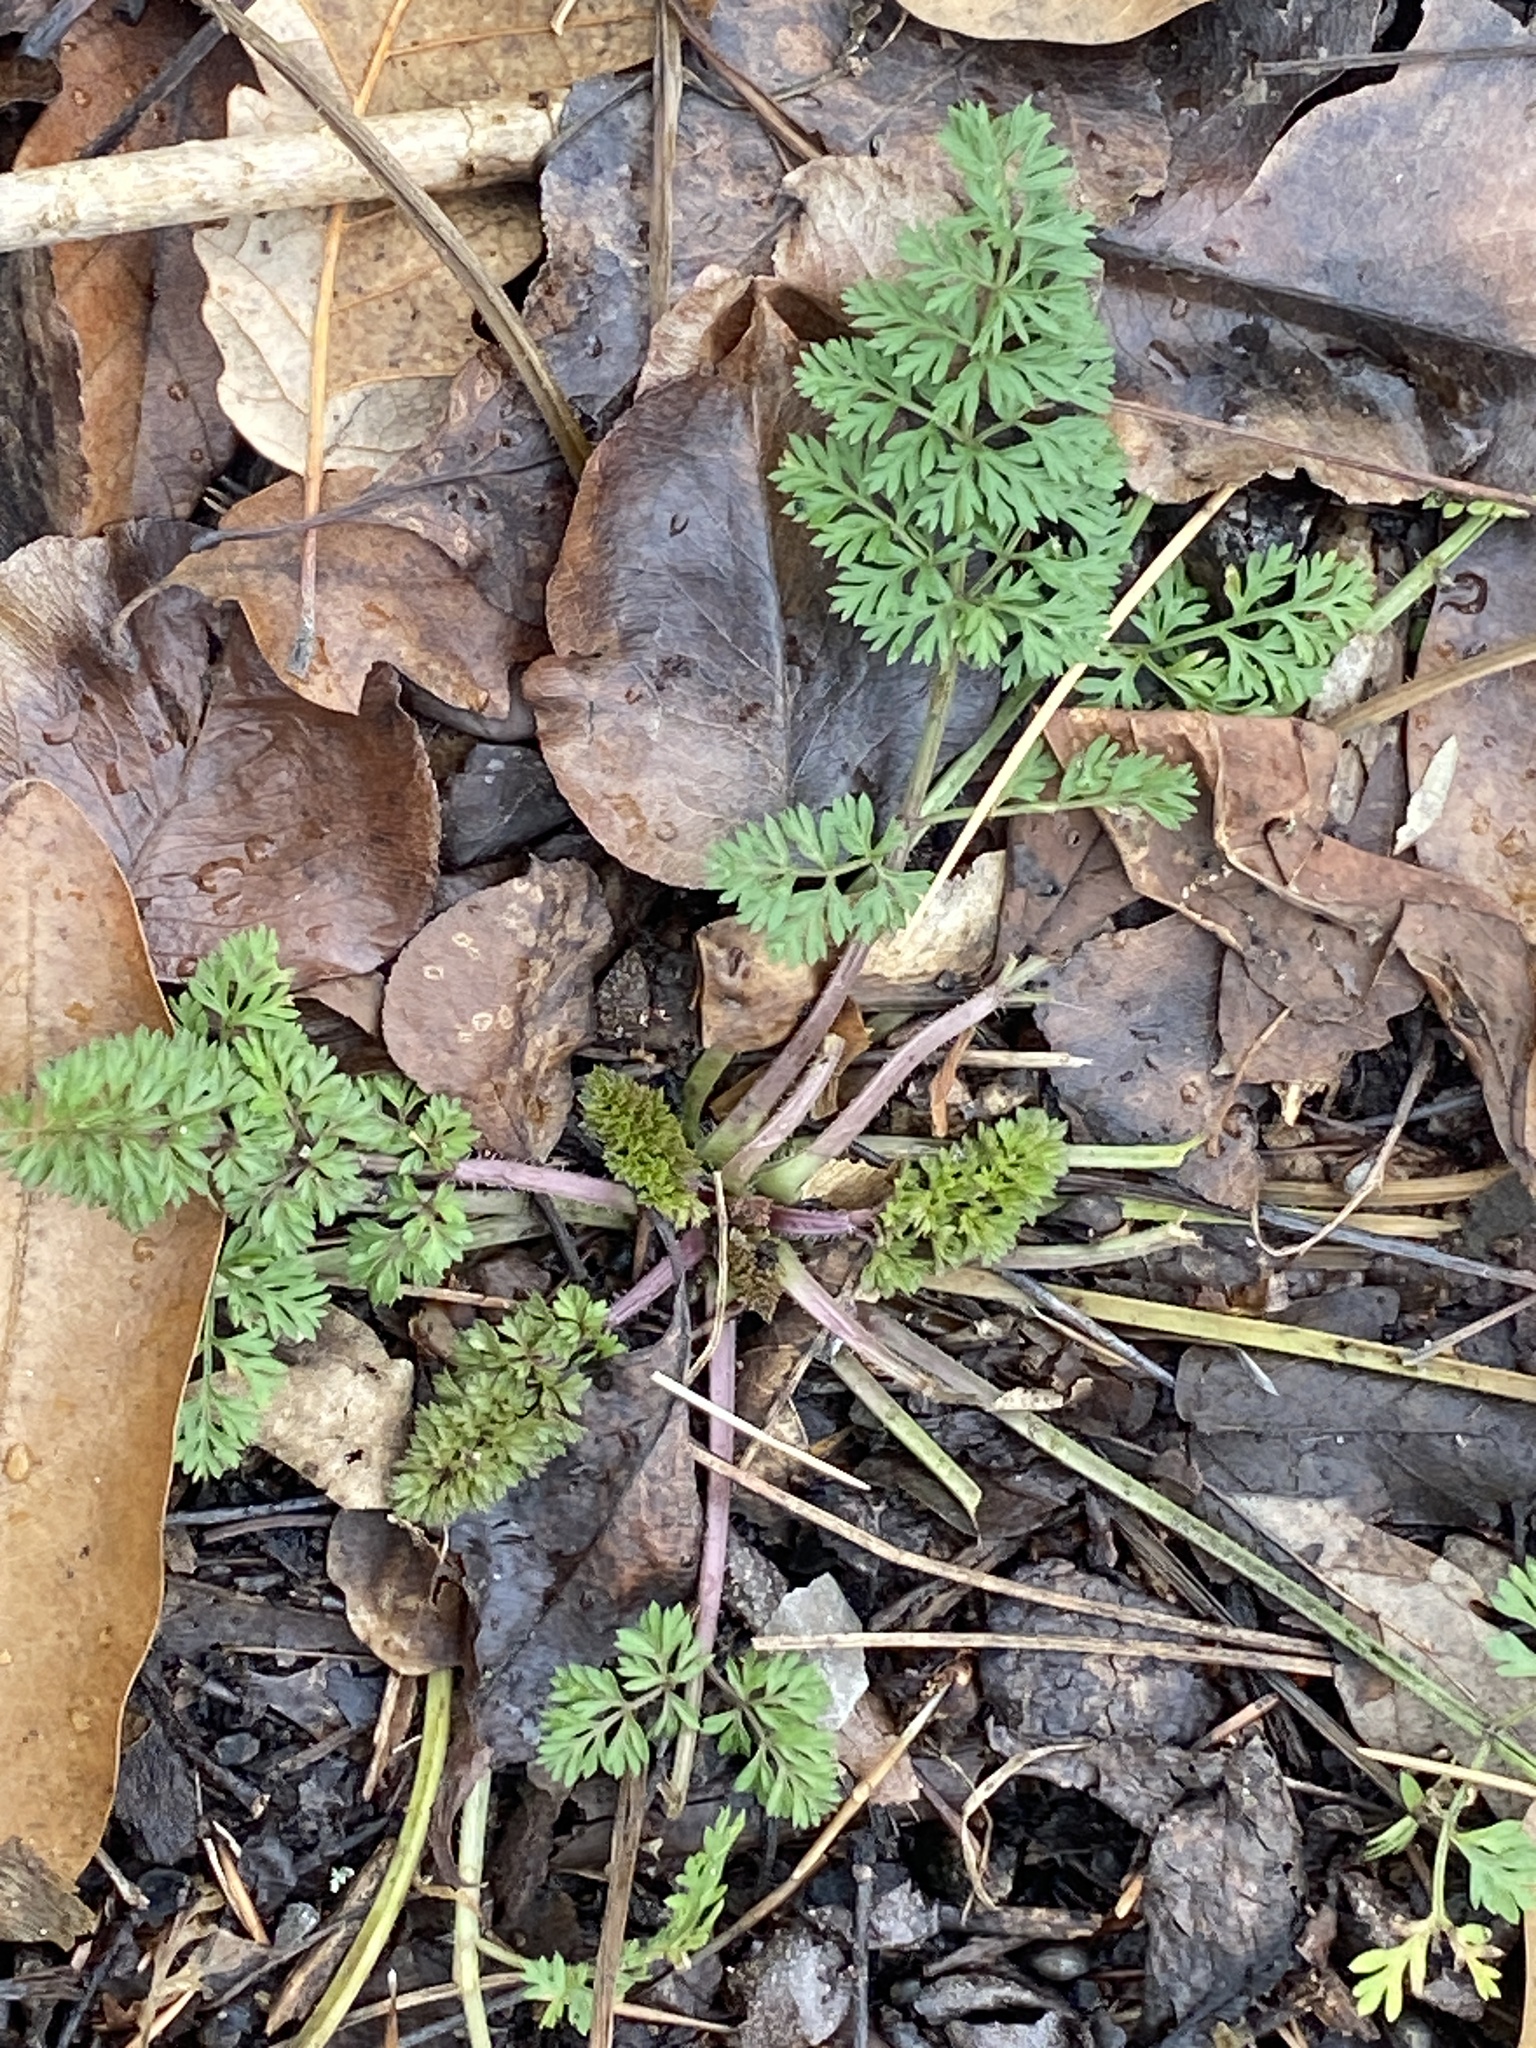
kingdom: Plantae
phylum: Tracheophyta
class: Magnoliopsida
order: Apiales
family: Apiaceae
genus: Daucus
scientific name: Daucus carota
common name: Wild carrot
